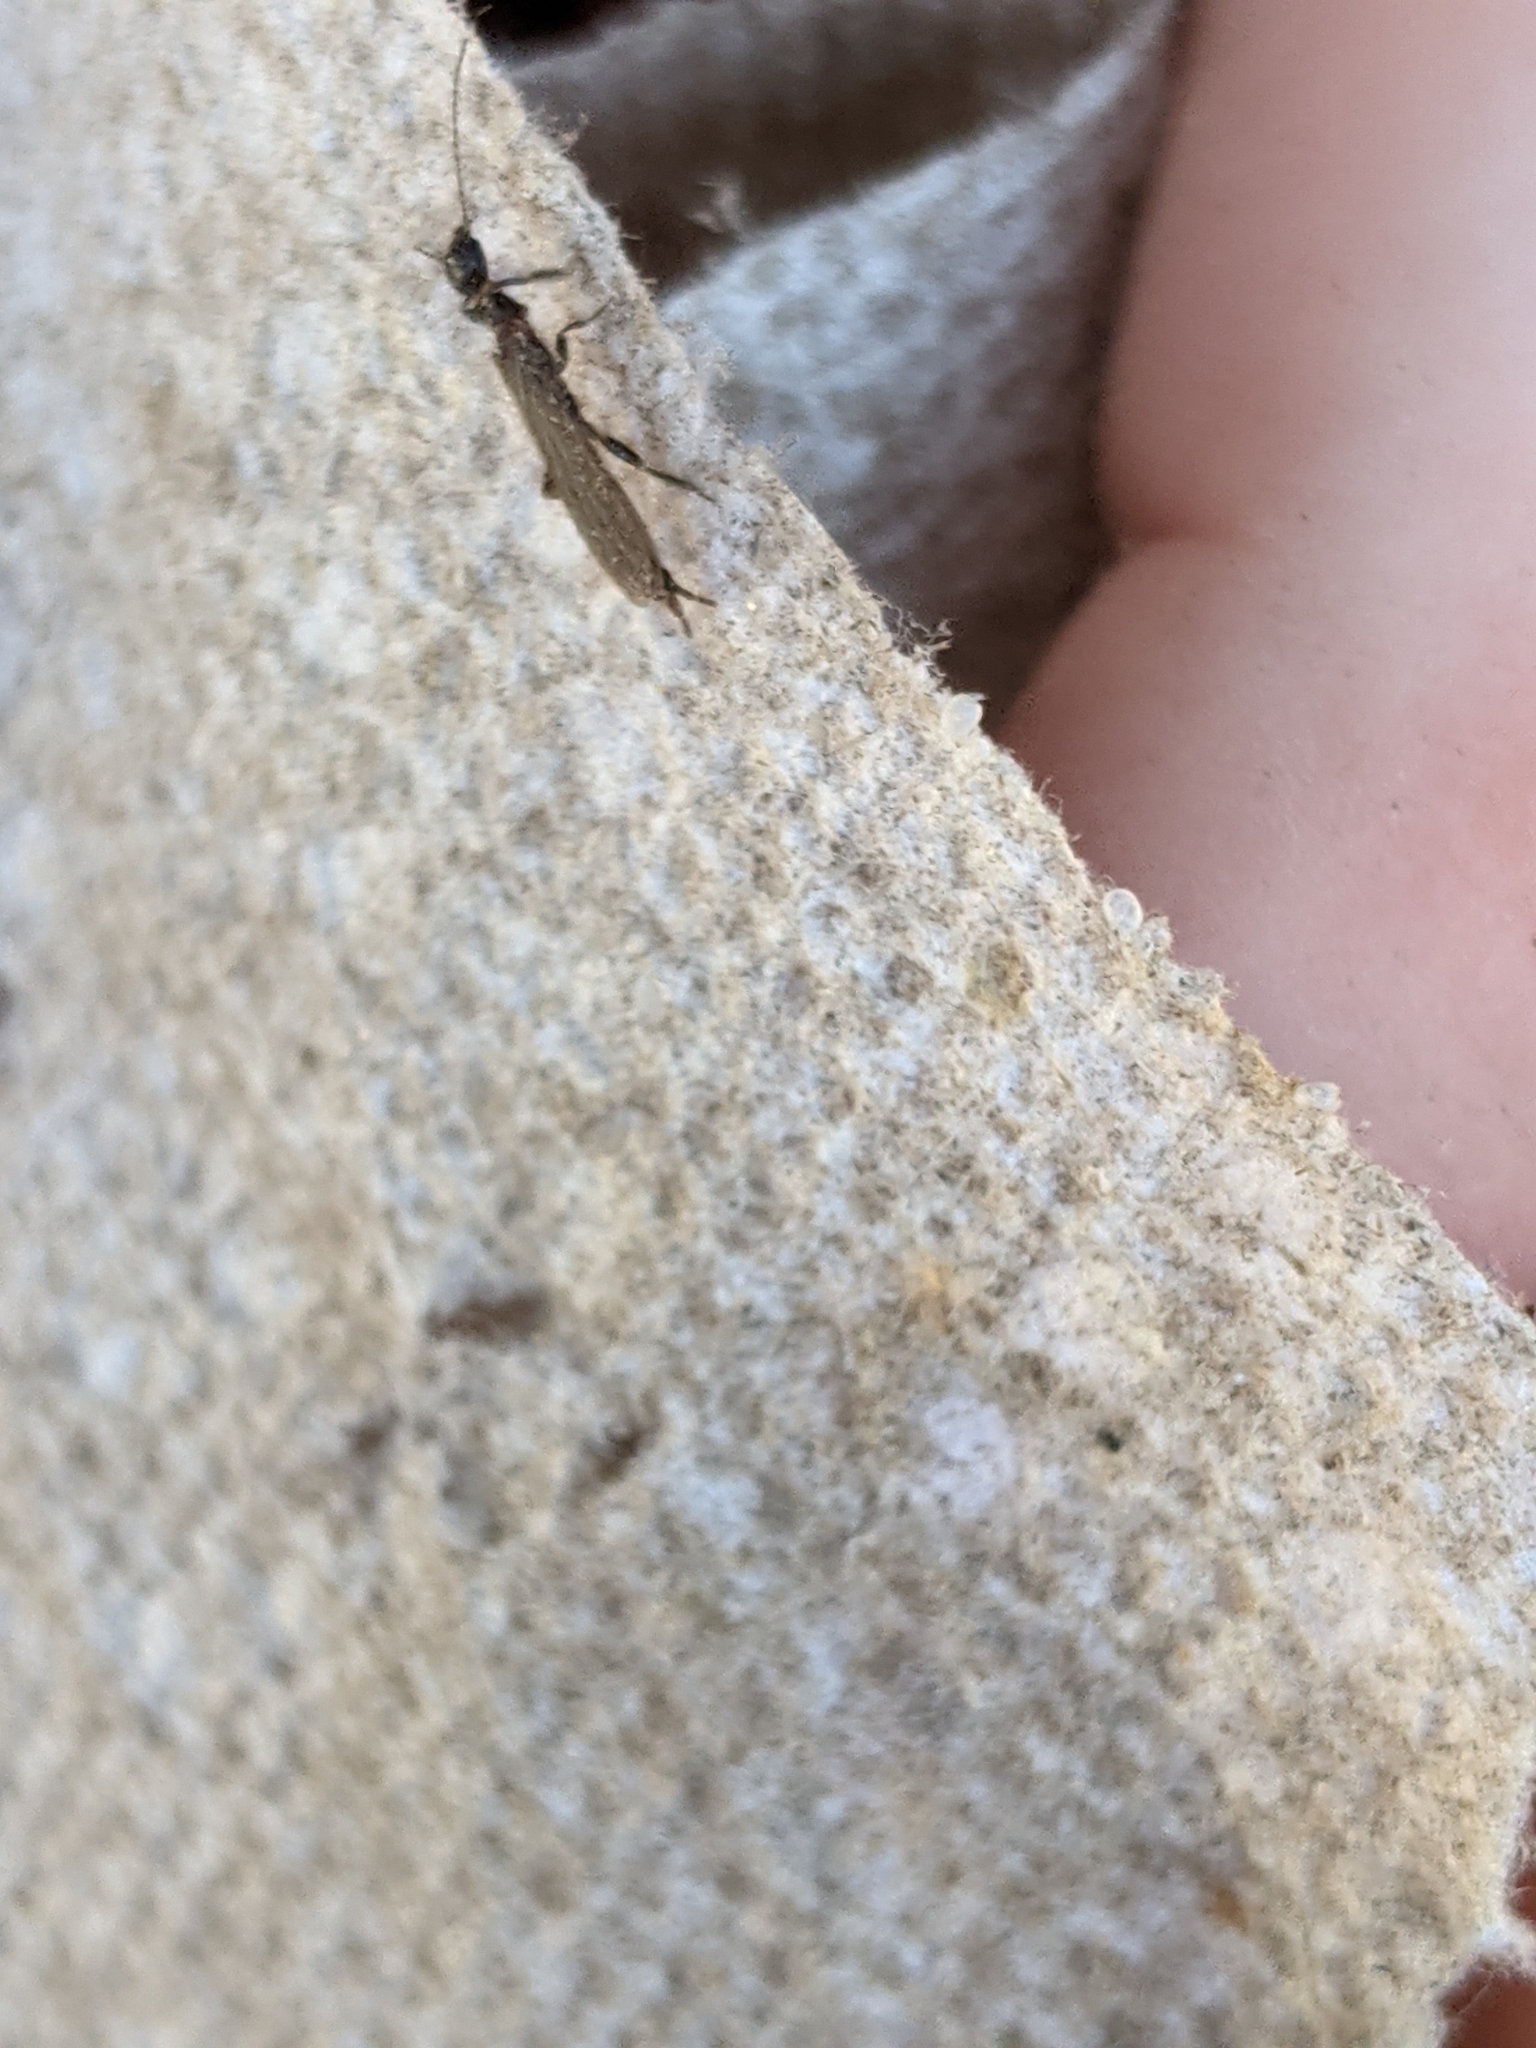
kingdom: Animalia
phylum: Arthropoda
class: Insecta
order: Embioptera
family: Oligotomidae
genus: Oligotoma
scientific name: Oligotoma nigra
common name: Black webspinner
